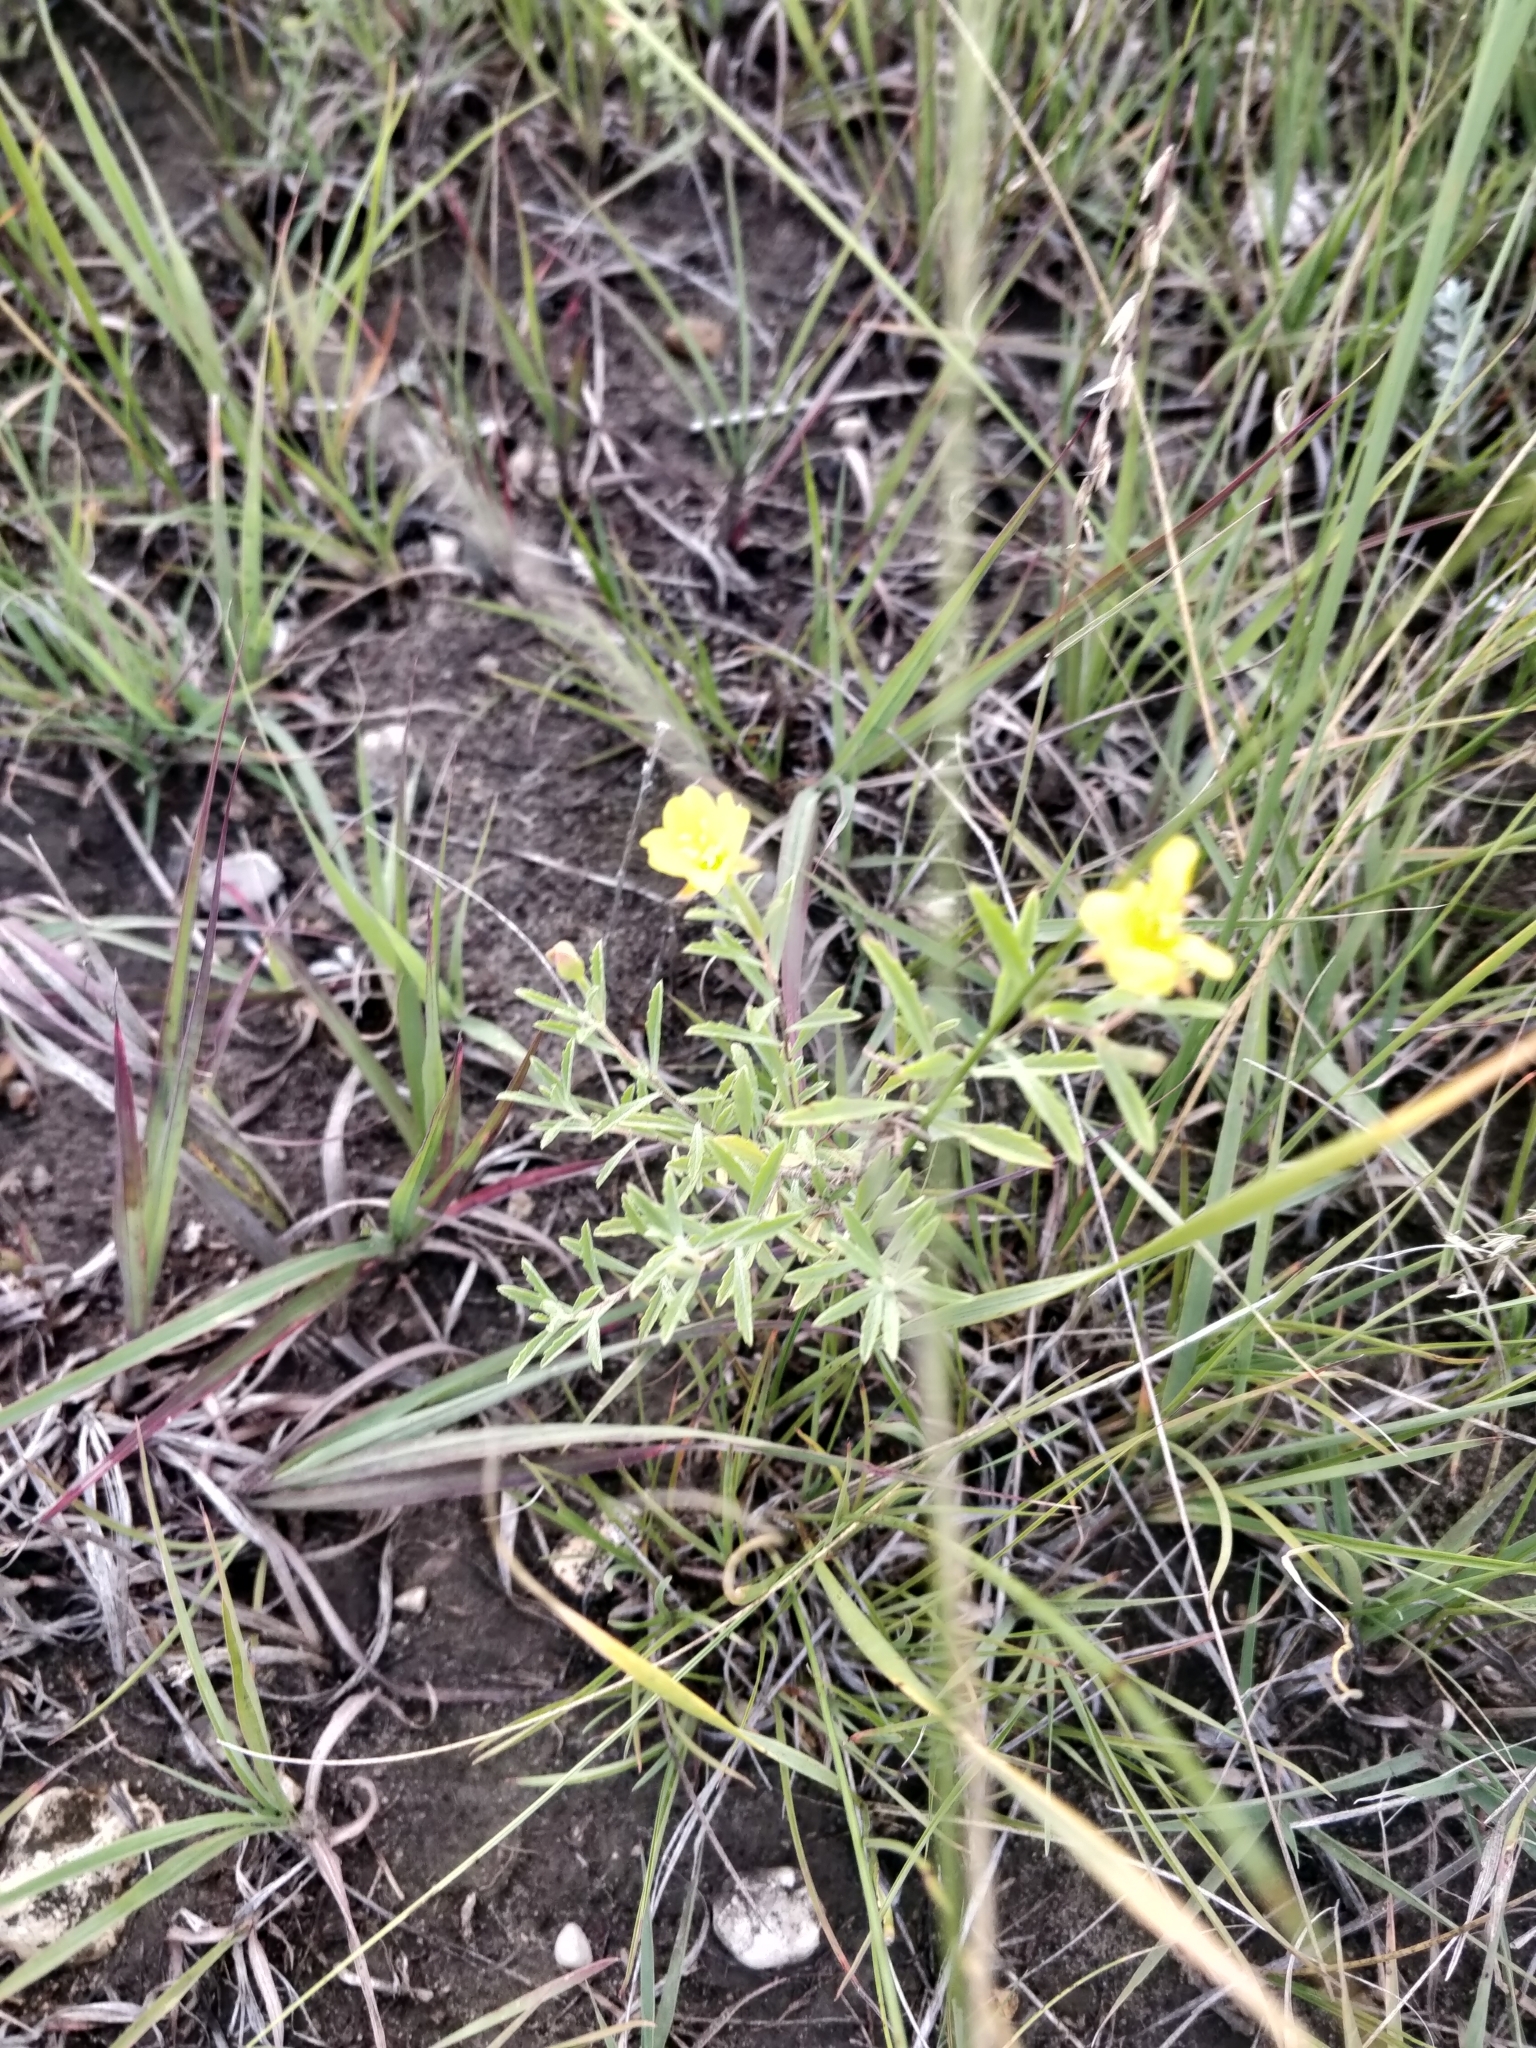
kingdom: Plantae
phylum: Tracheophyta
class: Magnoliopsida
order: Myrtales
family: Onagraceae
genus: Oenothera
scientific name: Oenothera serrulata
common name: Half-shrub calylophus
